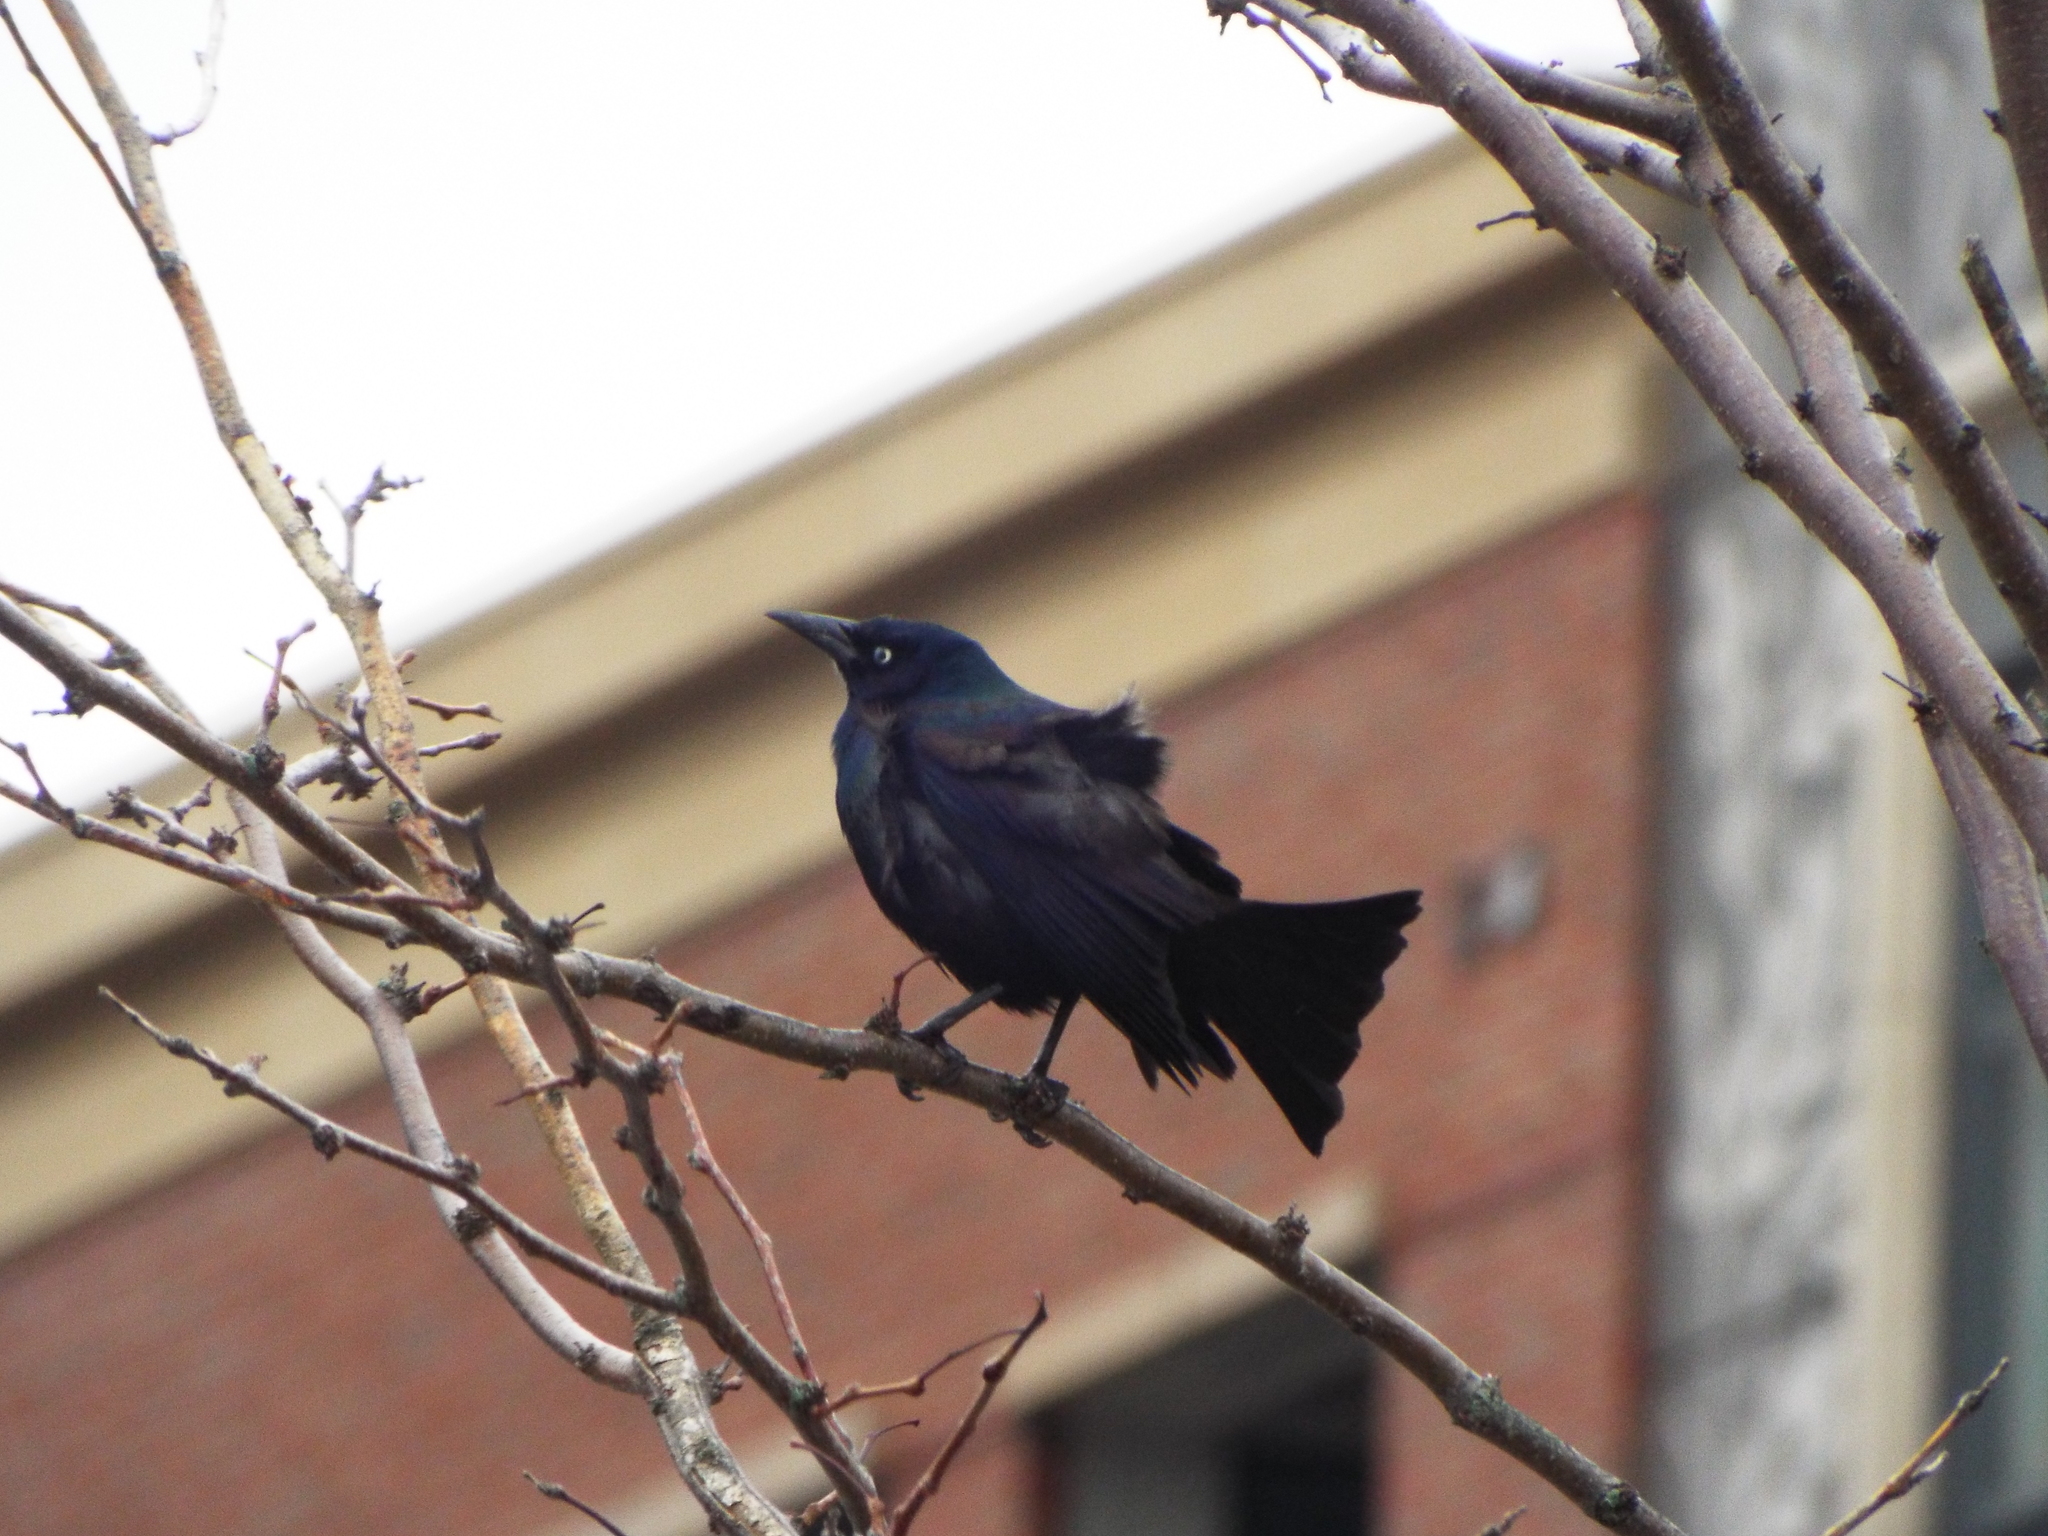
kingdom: Animalia
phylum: Chordata
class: Aves
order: Passeriformes
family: Icteridae
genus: Quiscalus
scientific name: Quiscalus quiscula
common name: Common grackle
